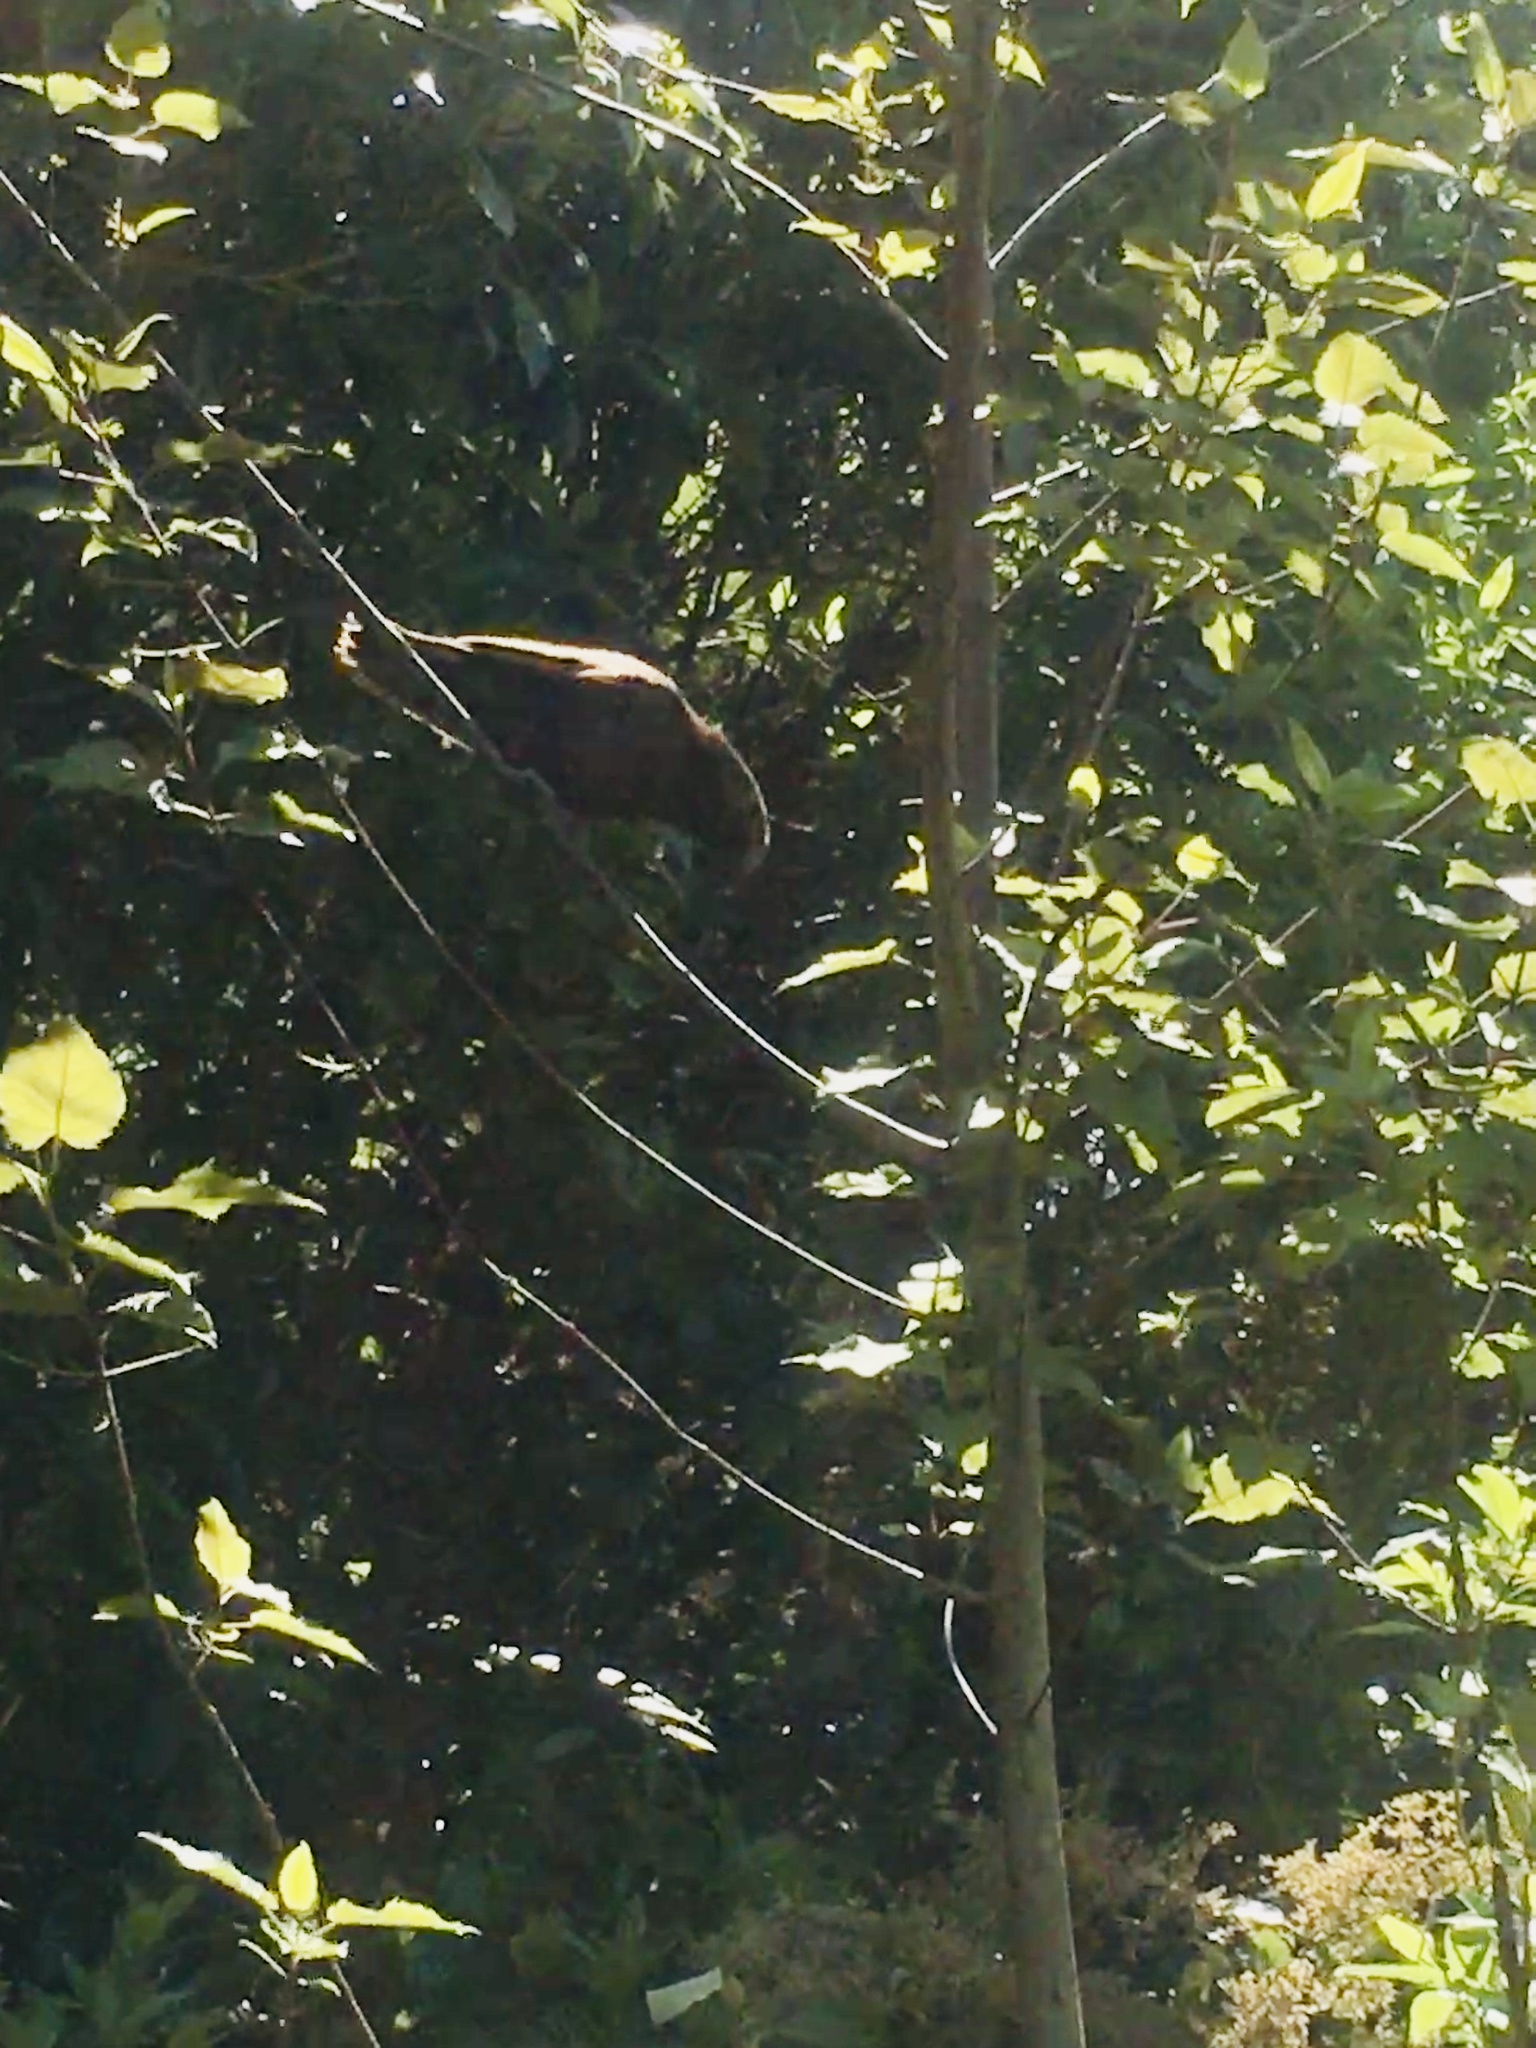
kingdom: Animalia
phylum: Chordata
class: Aves
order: Psittaciformes
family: Psittacidae
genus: Nestor
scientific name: Nestor meridionalis
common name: New zealand kaka
